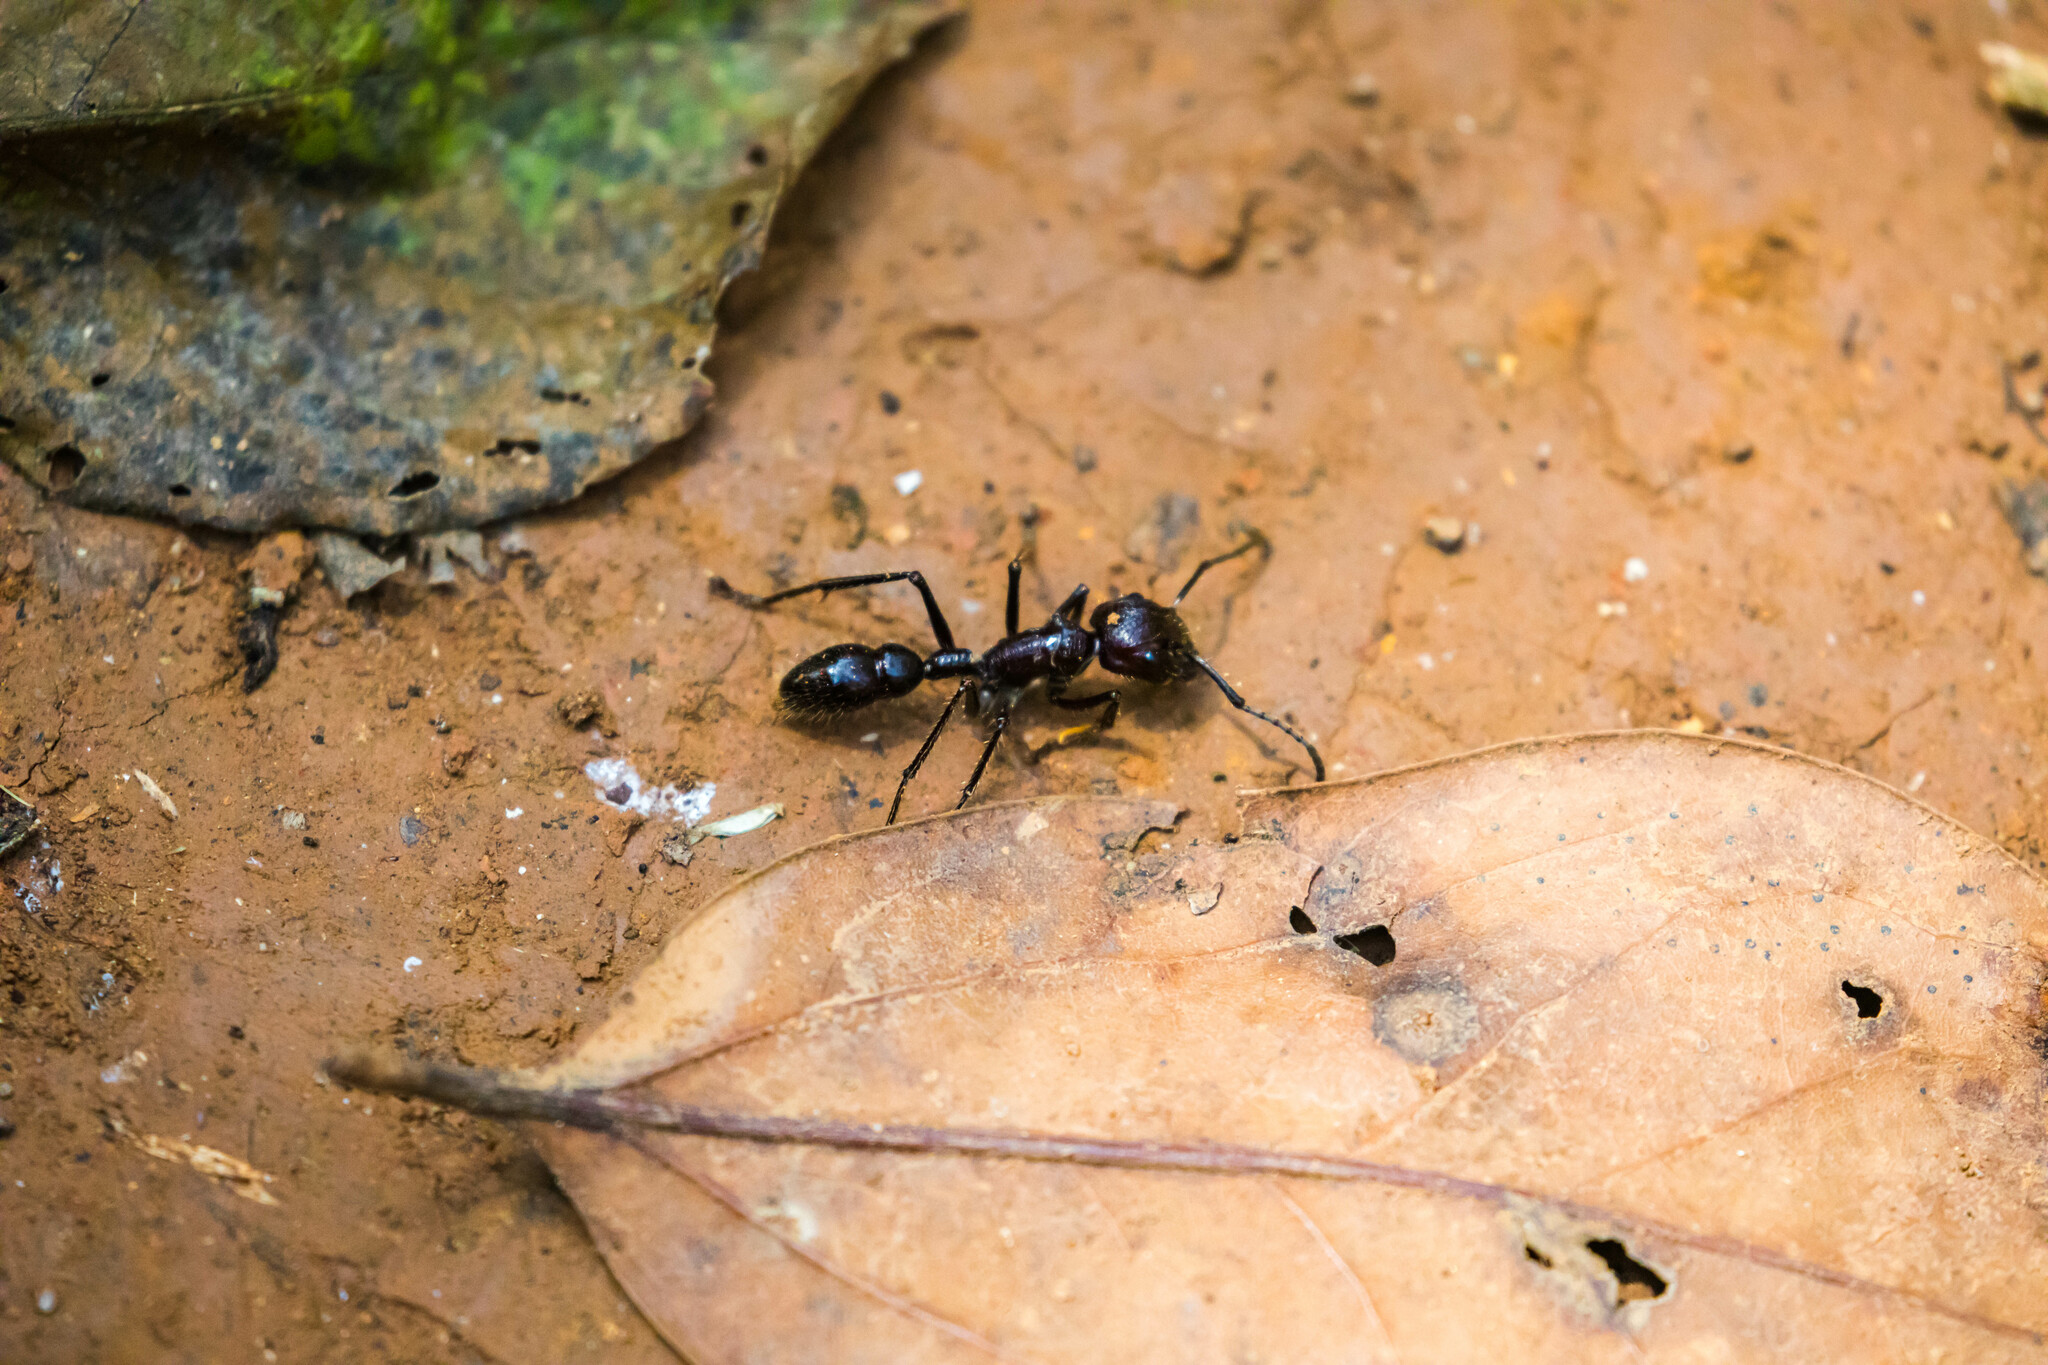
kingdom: Animalia
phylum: Arthropoda
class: Insecta
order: Hymenoptera
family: Formicidae
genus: Paraponera
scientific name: Paraponera clavata
